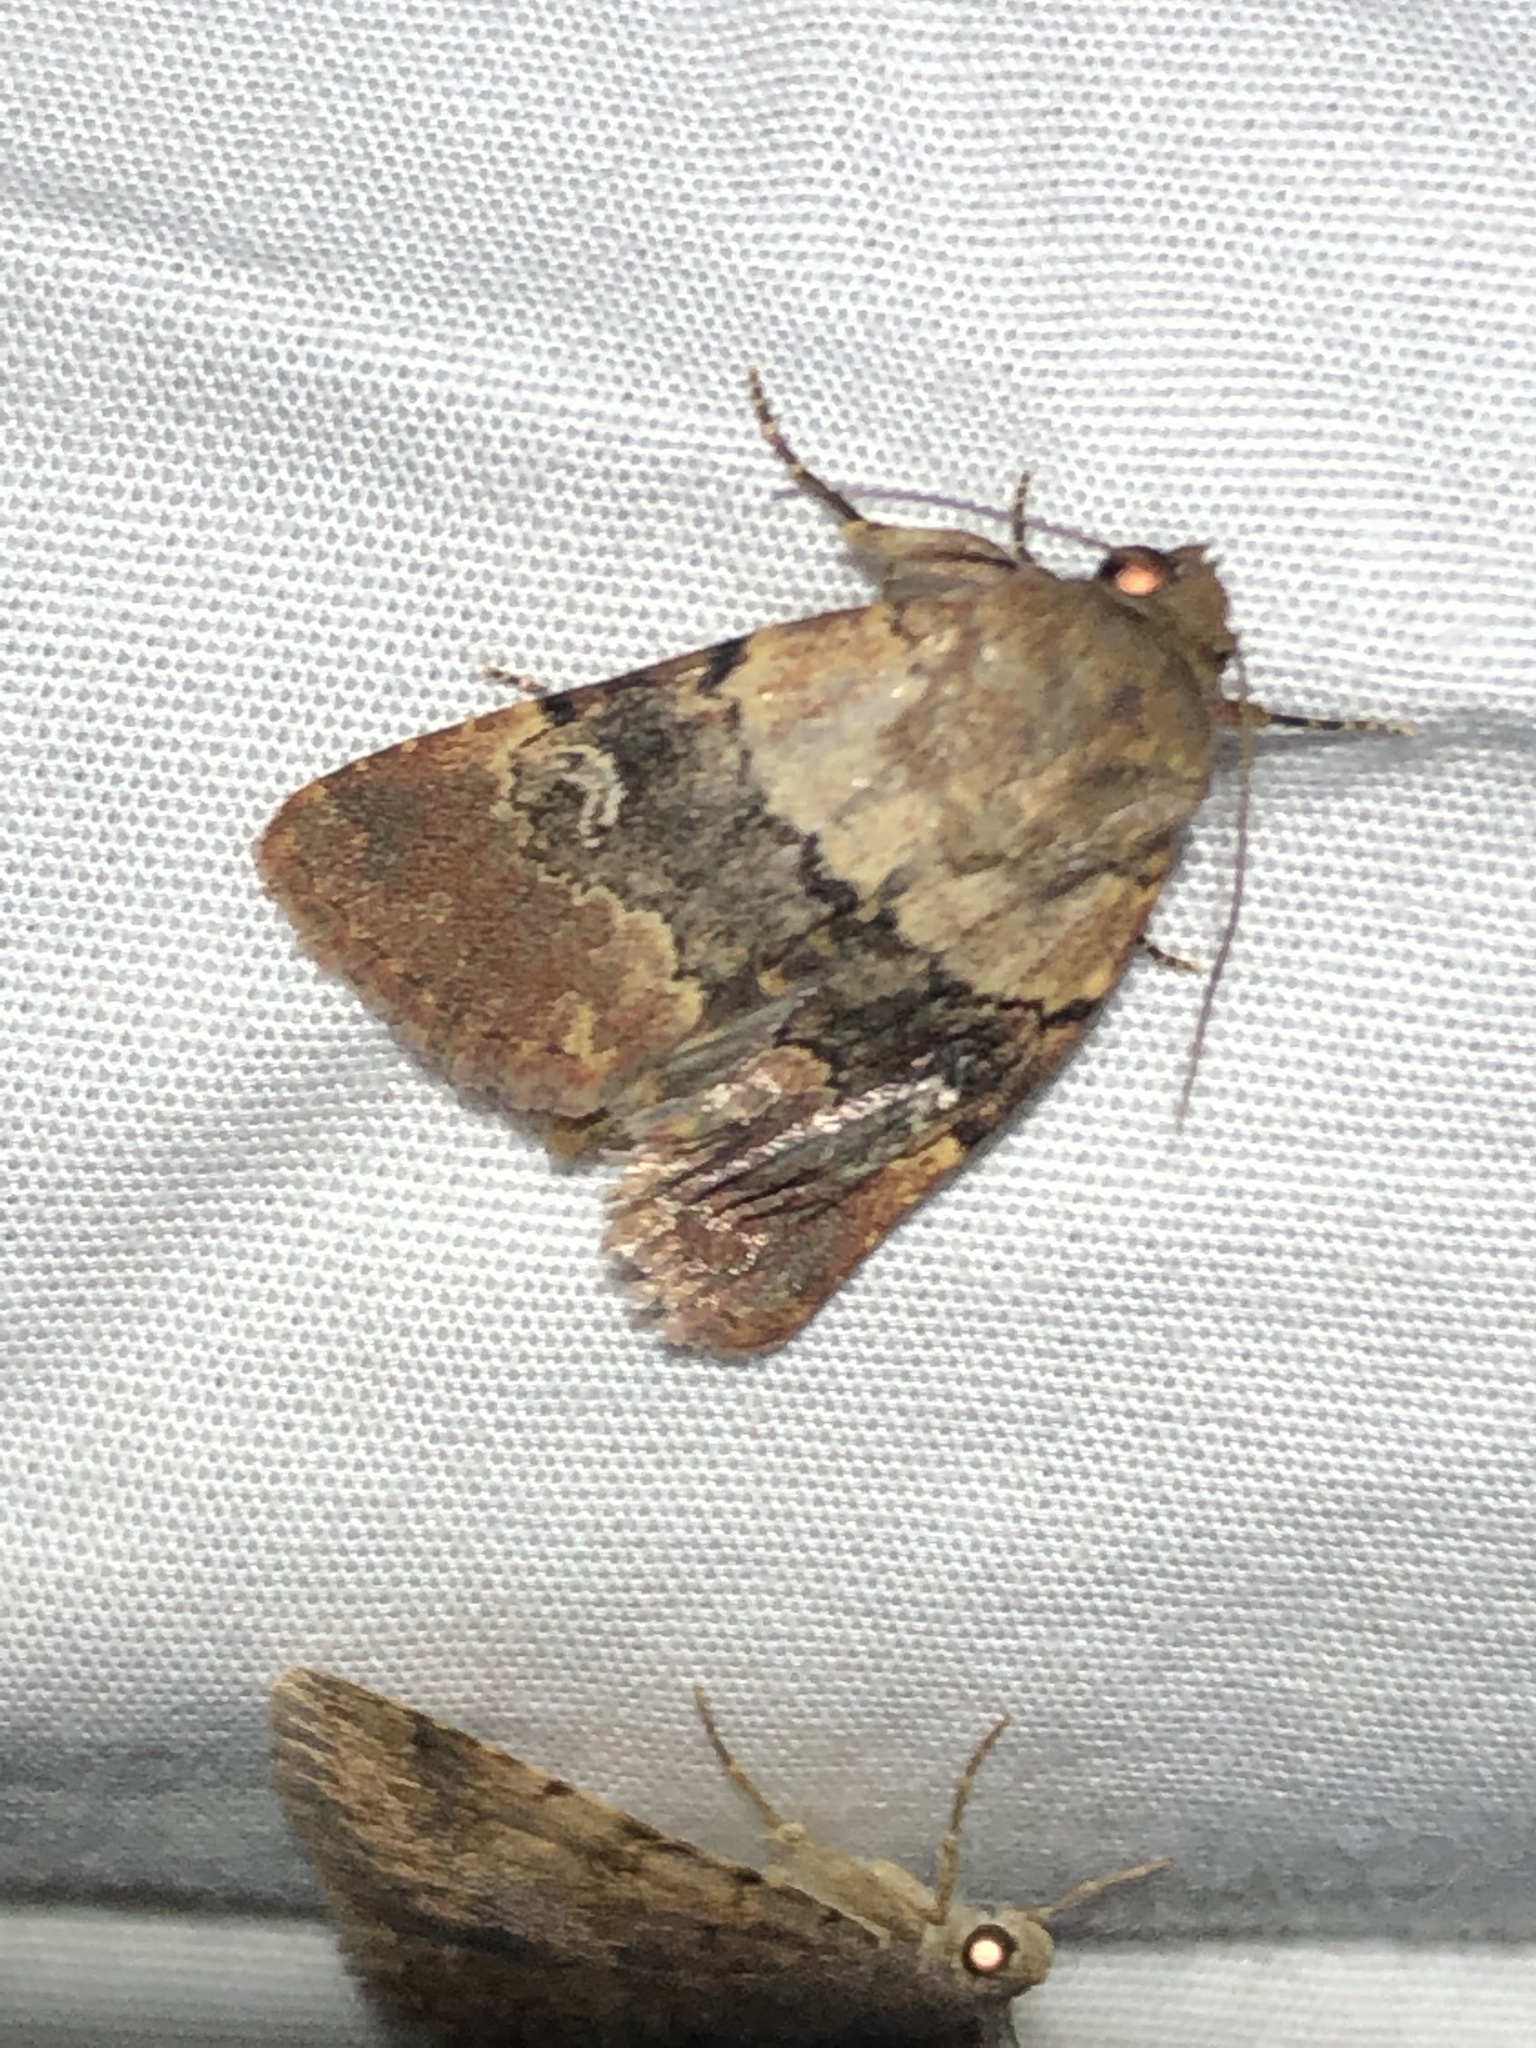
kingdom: Animalia
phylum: Arthropoda
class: Insecta
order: Lepidoptera
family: Noctuidae
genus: Properigea
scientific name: Properigea continens
